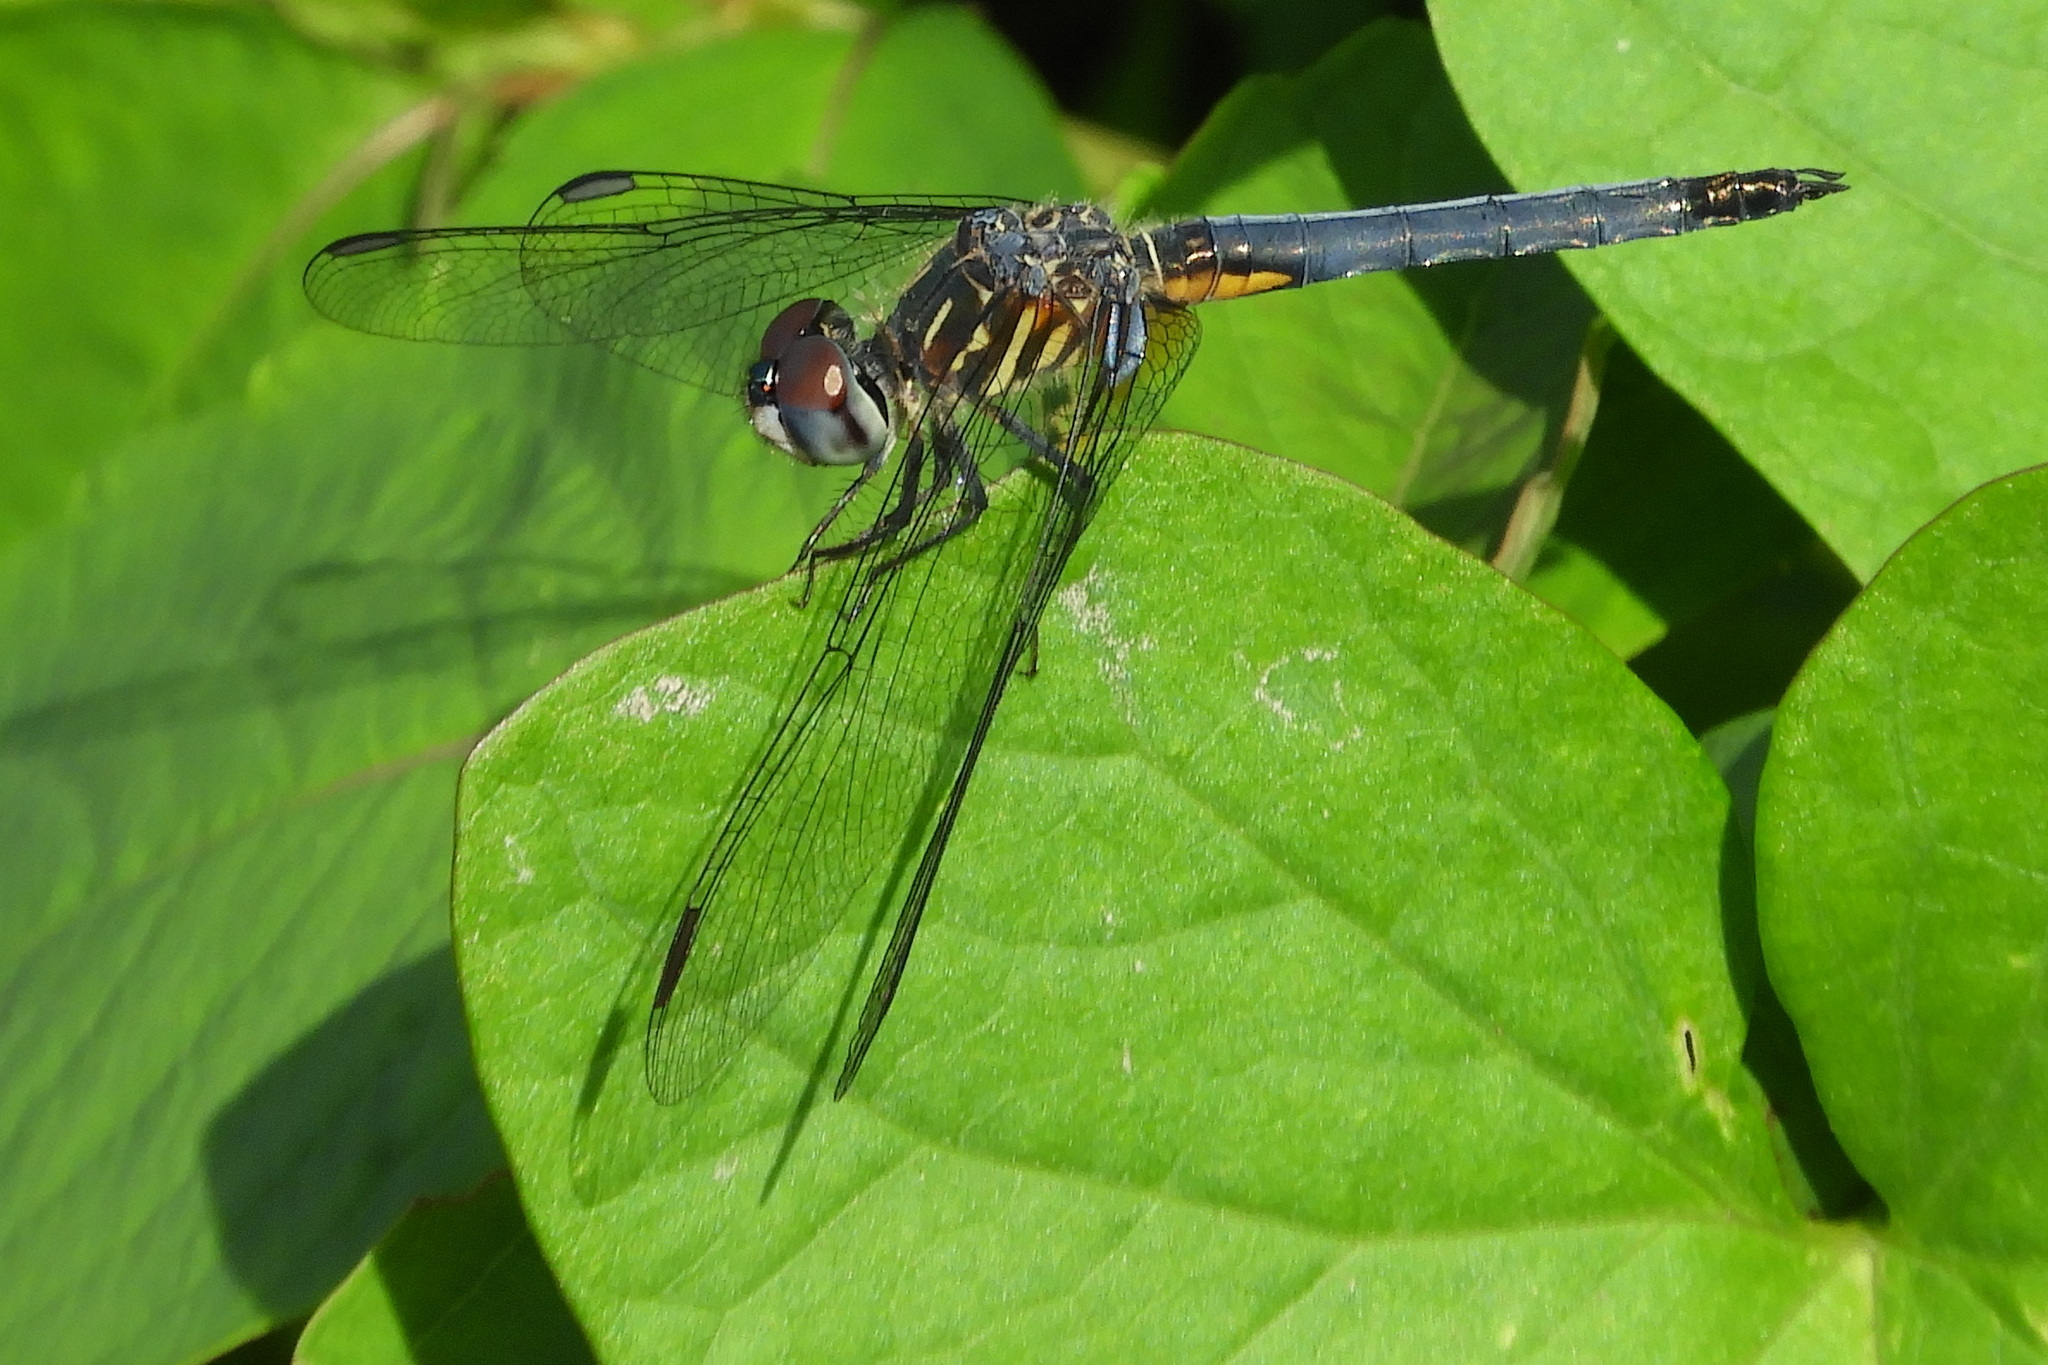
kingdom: Animalia
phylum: Arthropoda
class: Insecta
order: Odonata
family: Libellulidae
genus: Pachydiplax
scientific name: Pachydiplax longipennis
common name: Blue dasher
